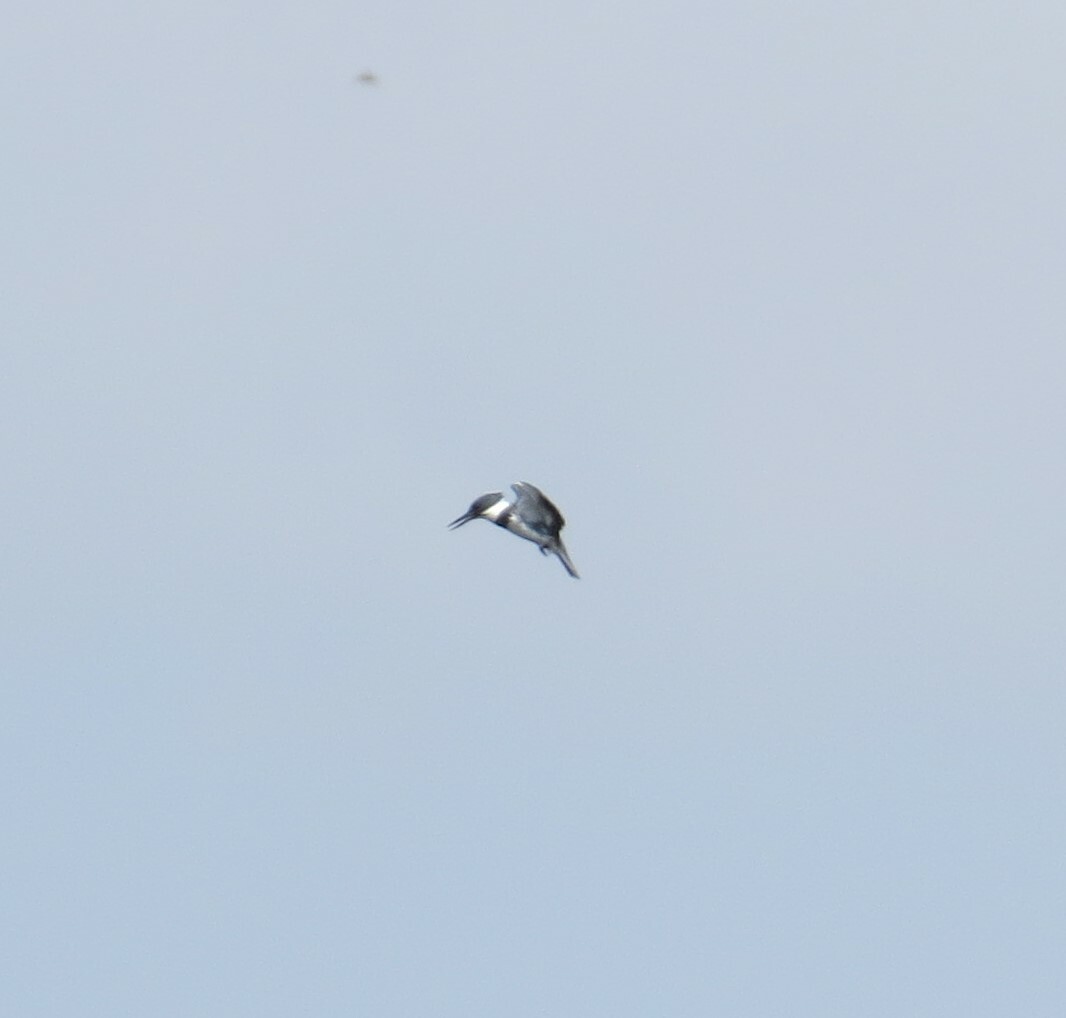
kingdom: Animalia
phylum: Chordata
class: Aves
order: Coraciiformes
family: Alcedinidae
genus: Megaceryle
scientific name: Megaceryle alcyon
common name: Belted kingfisher
